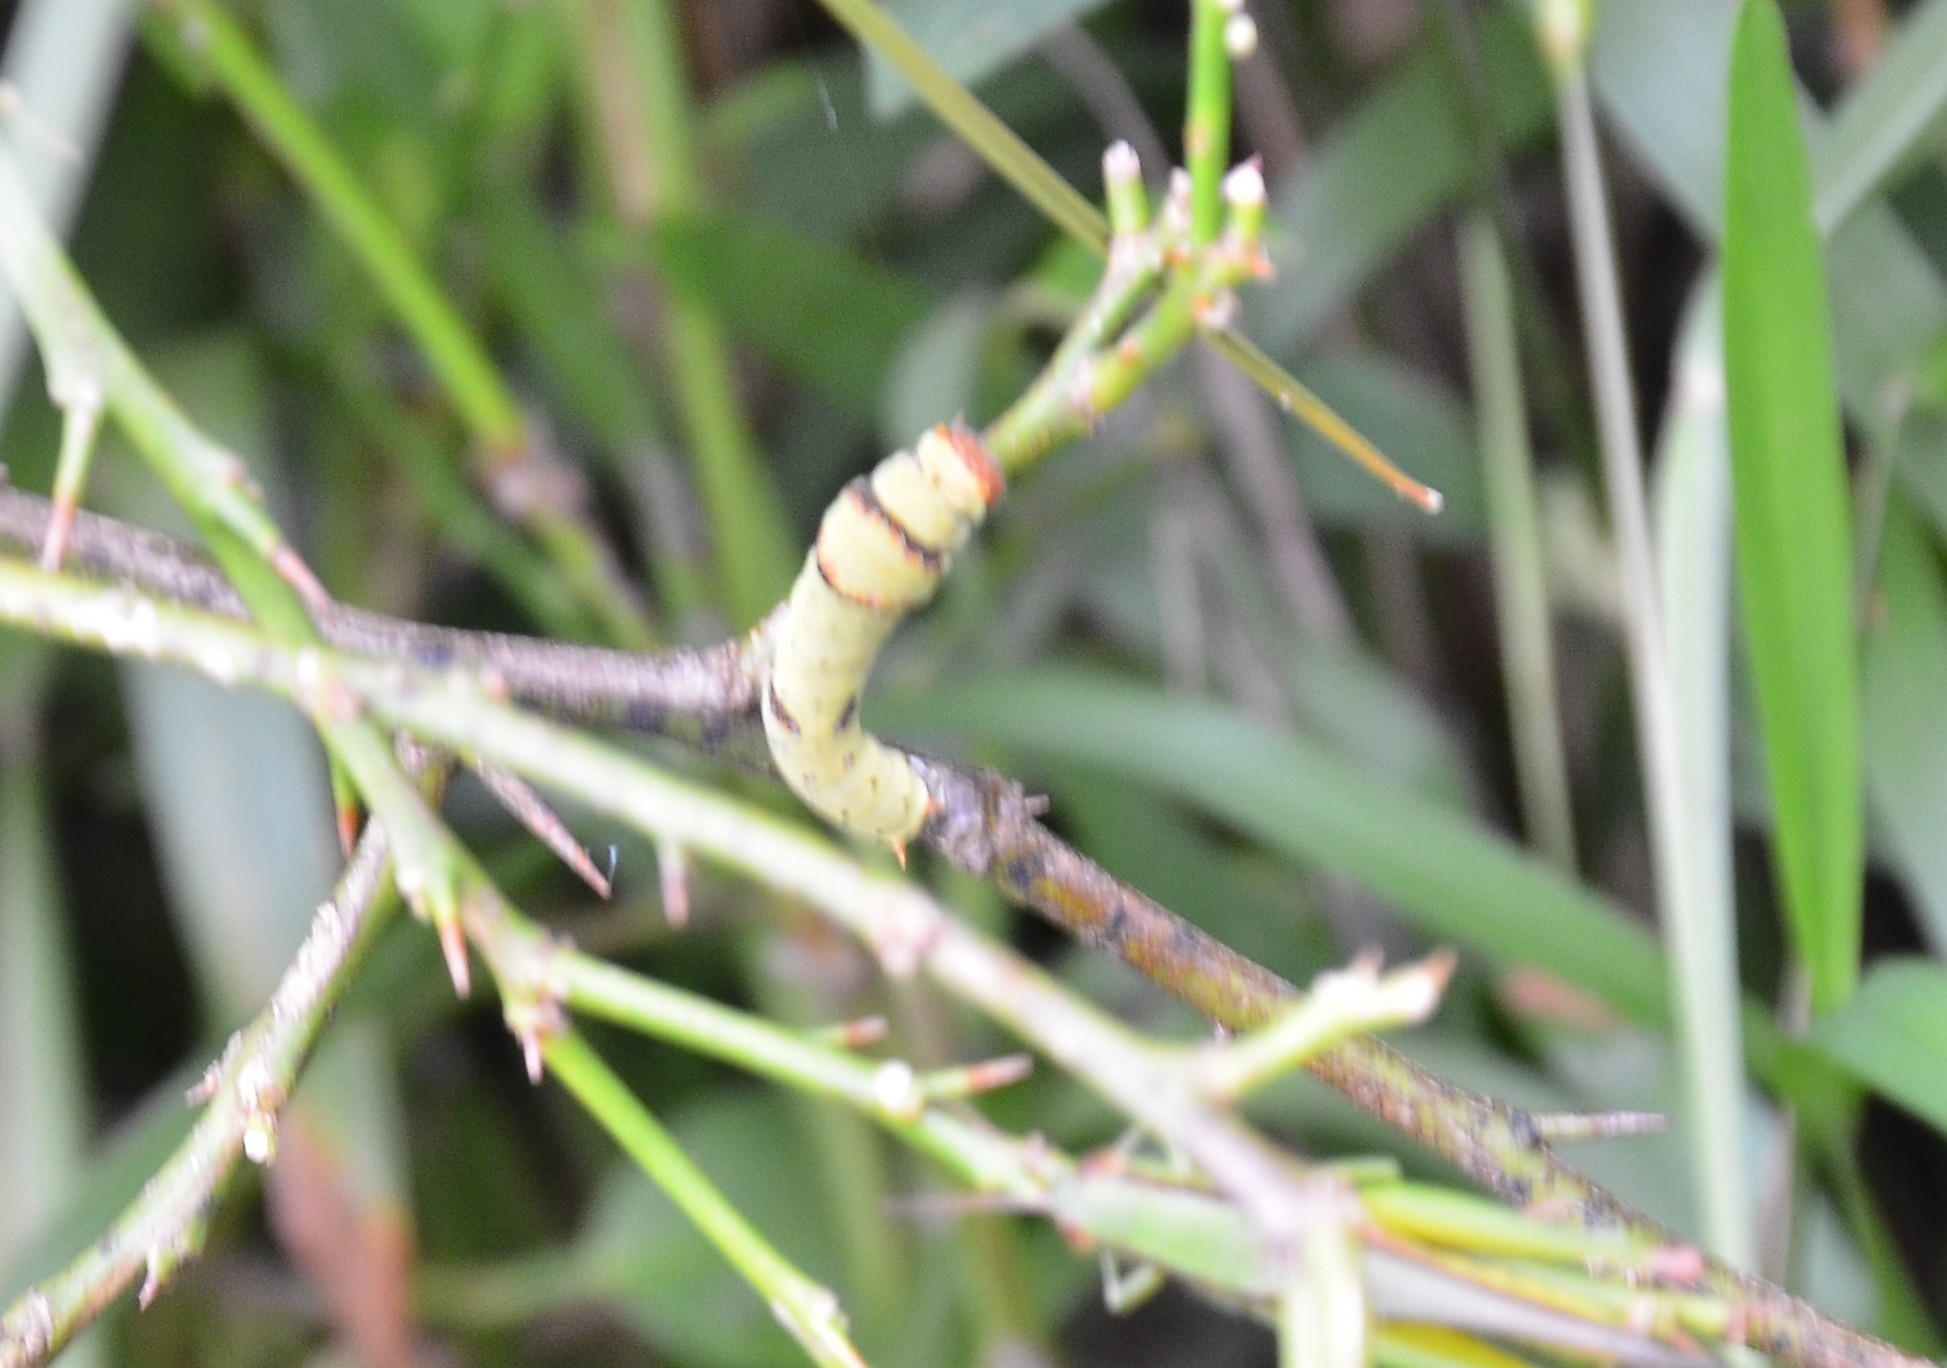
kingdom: Animalia
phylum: Arthropoda
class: Insecta
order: Lepidoptera
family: Papilionidae
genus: Papilio
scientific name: Papilio demoleus
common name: Lime butterfly
